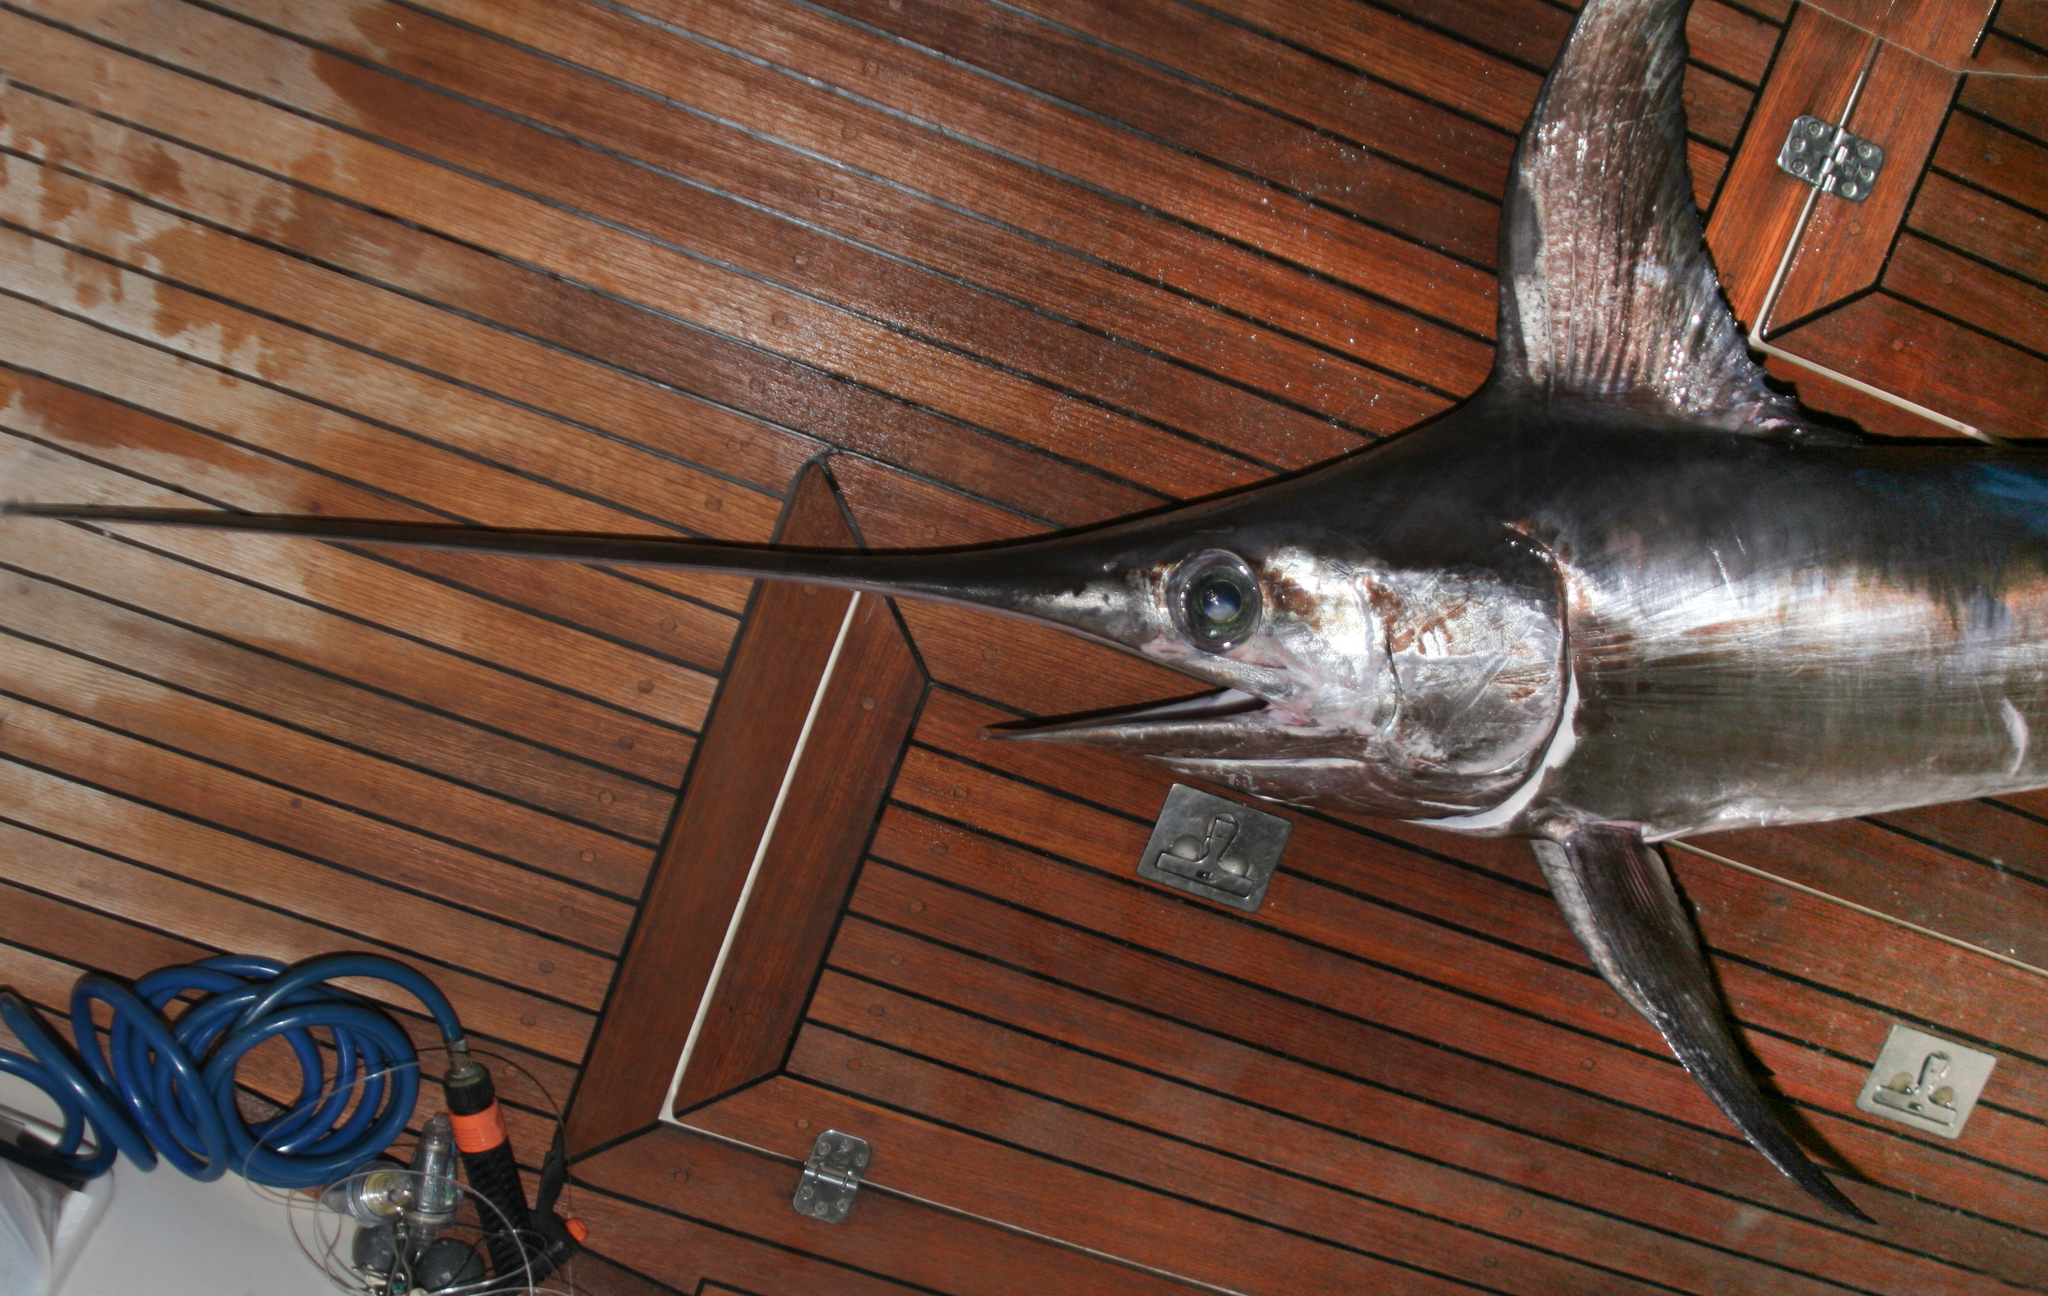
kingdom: Animalia
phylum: Chordata
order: Perciformes
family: Xiphiidae
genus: Xiphias
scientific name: Xiphias gladius
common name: Swordfish
